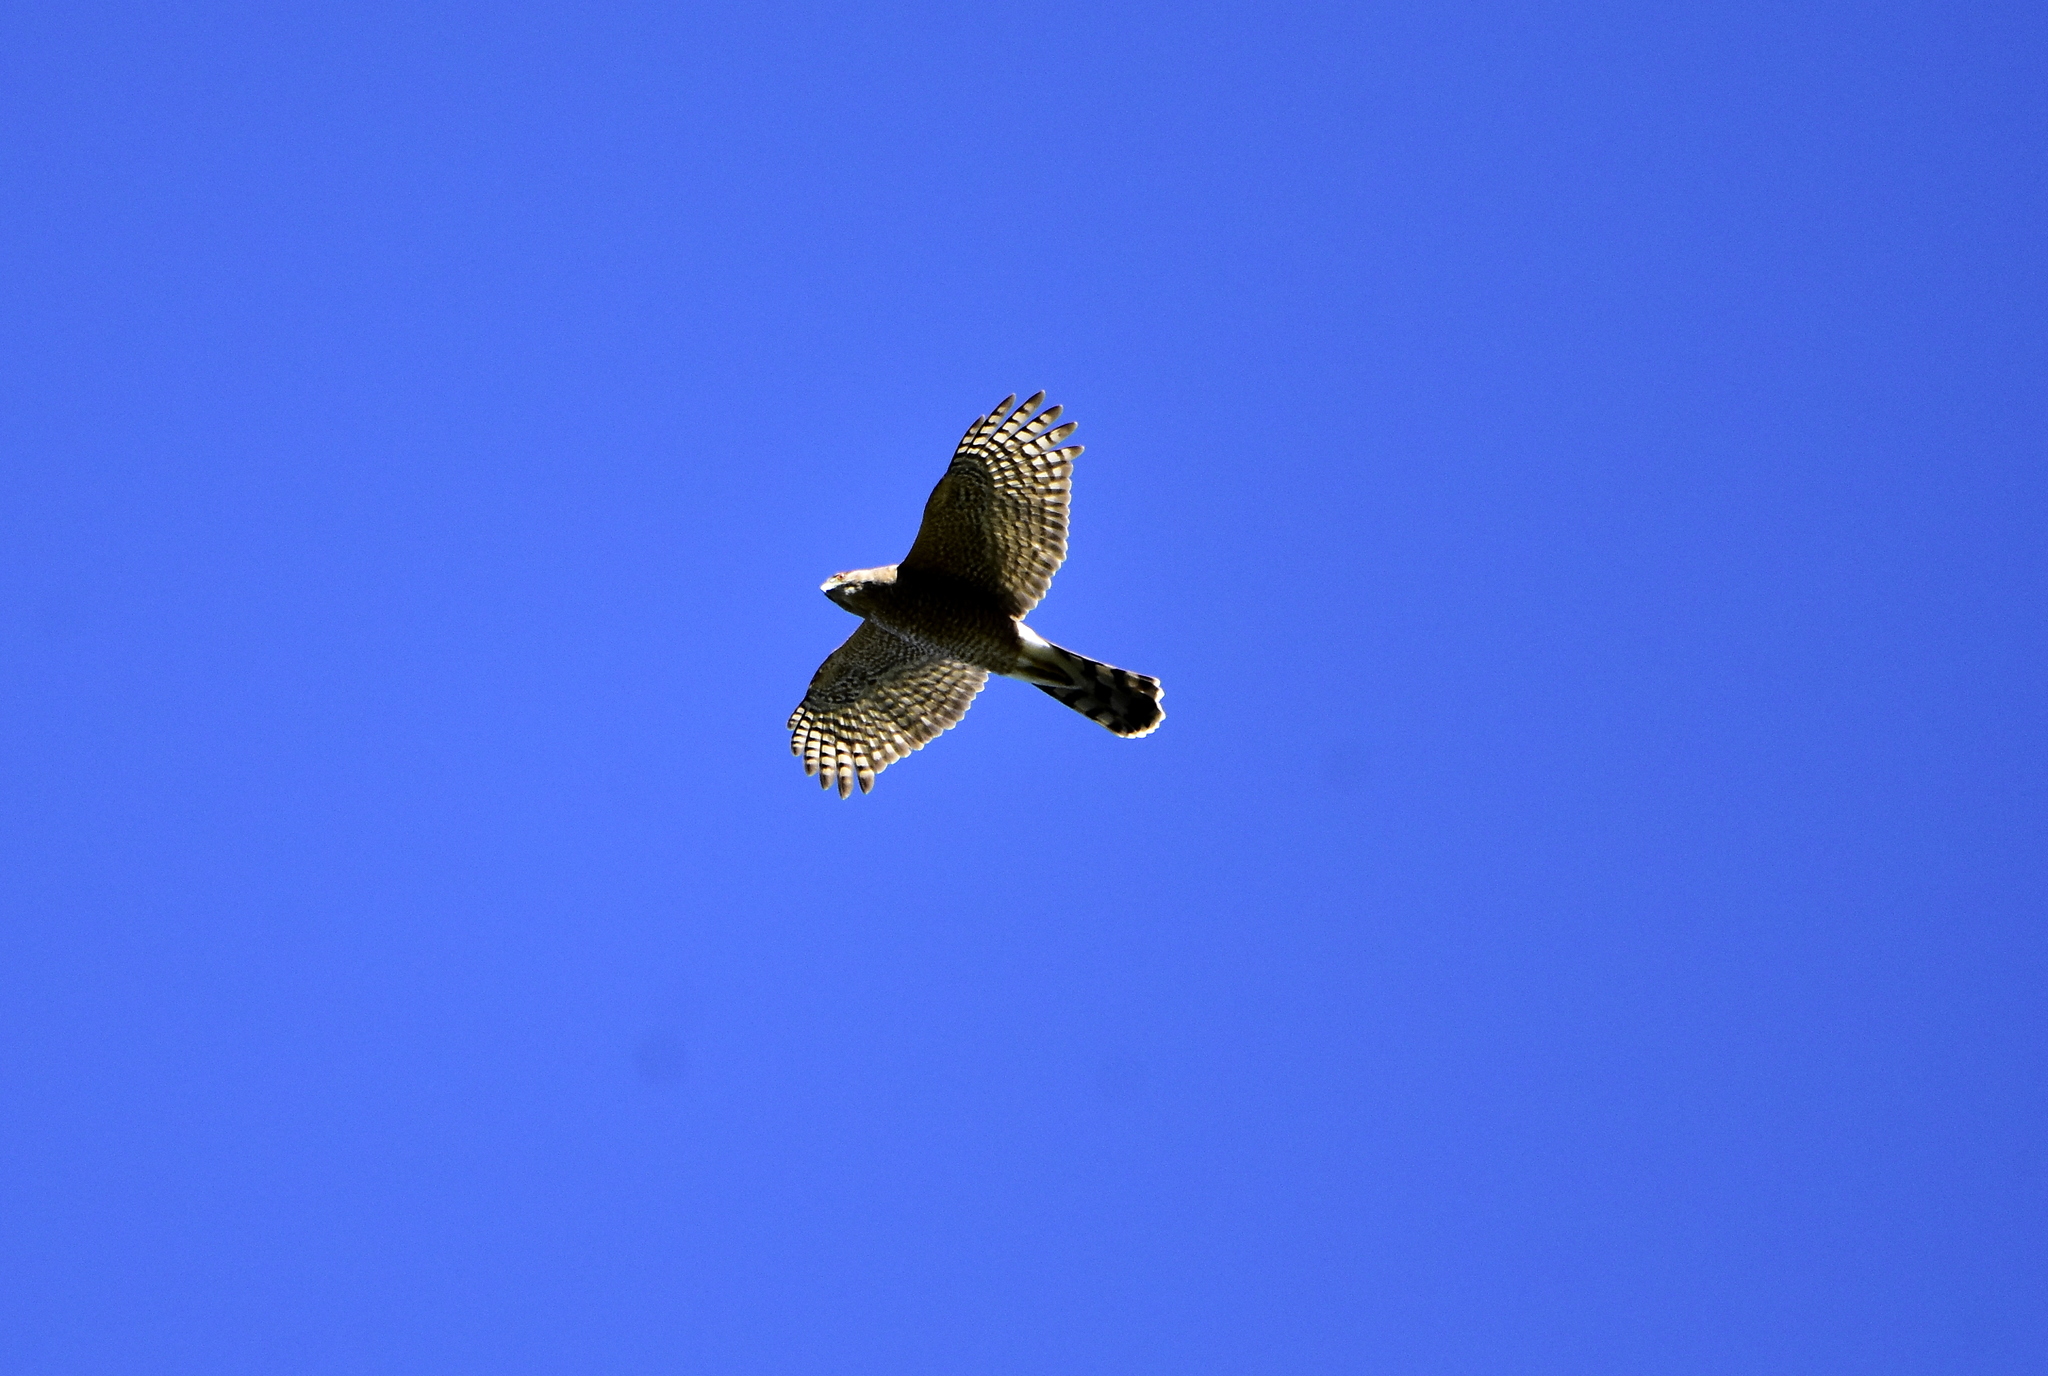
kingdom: Animalia
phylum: Chordata
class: Aves
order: Accipitriformes
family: Accipitridae
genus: Rupornis
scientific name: Rupornis magnirostris
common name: Roadside hawk
